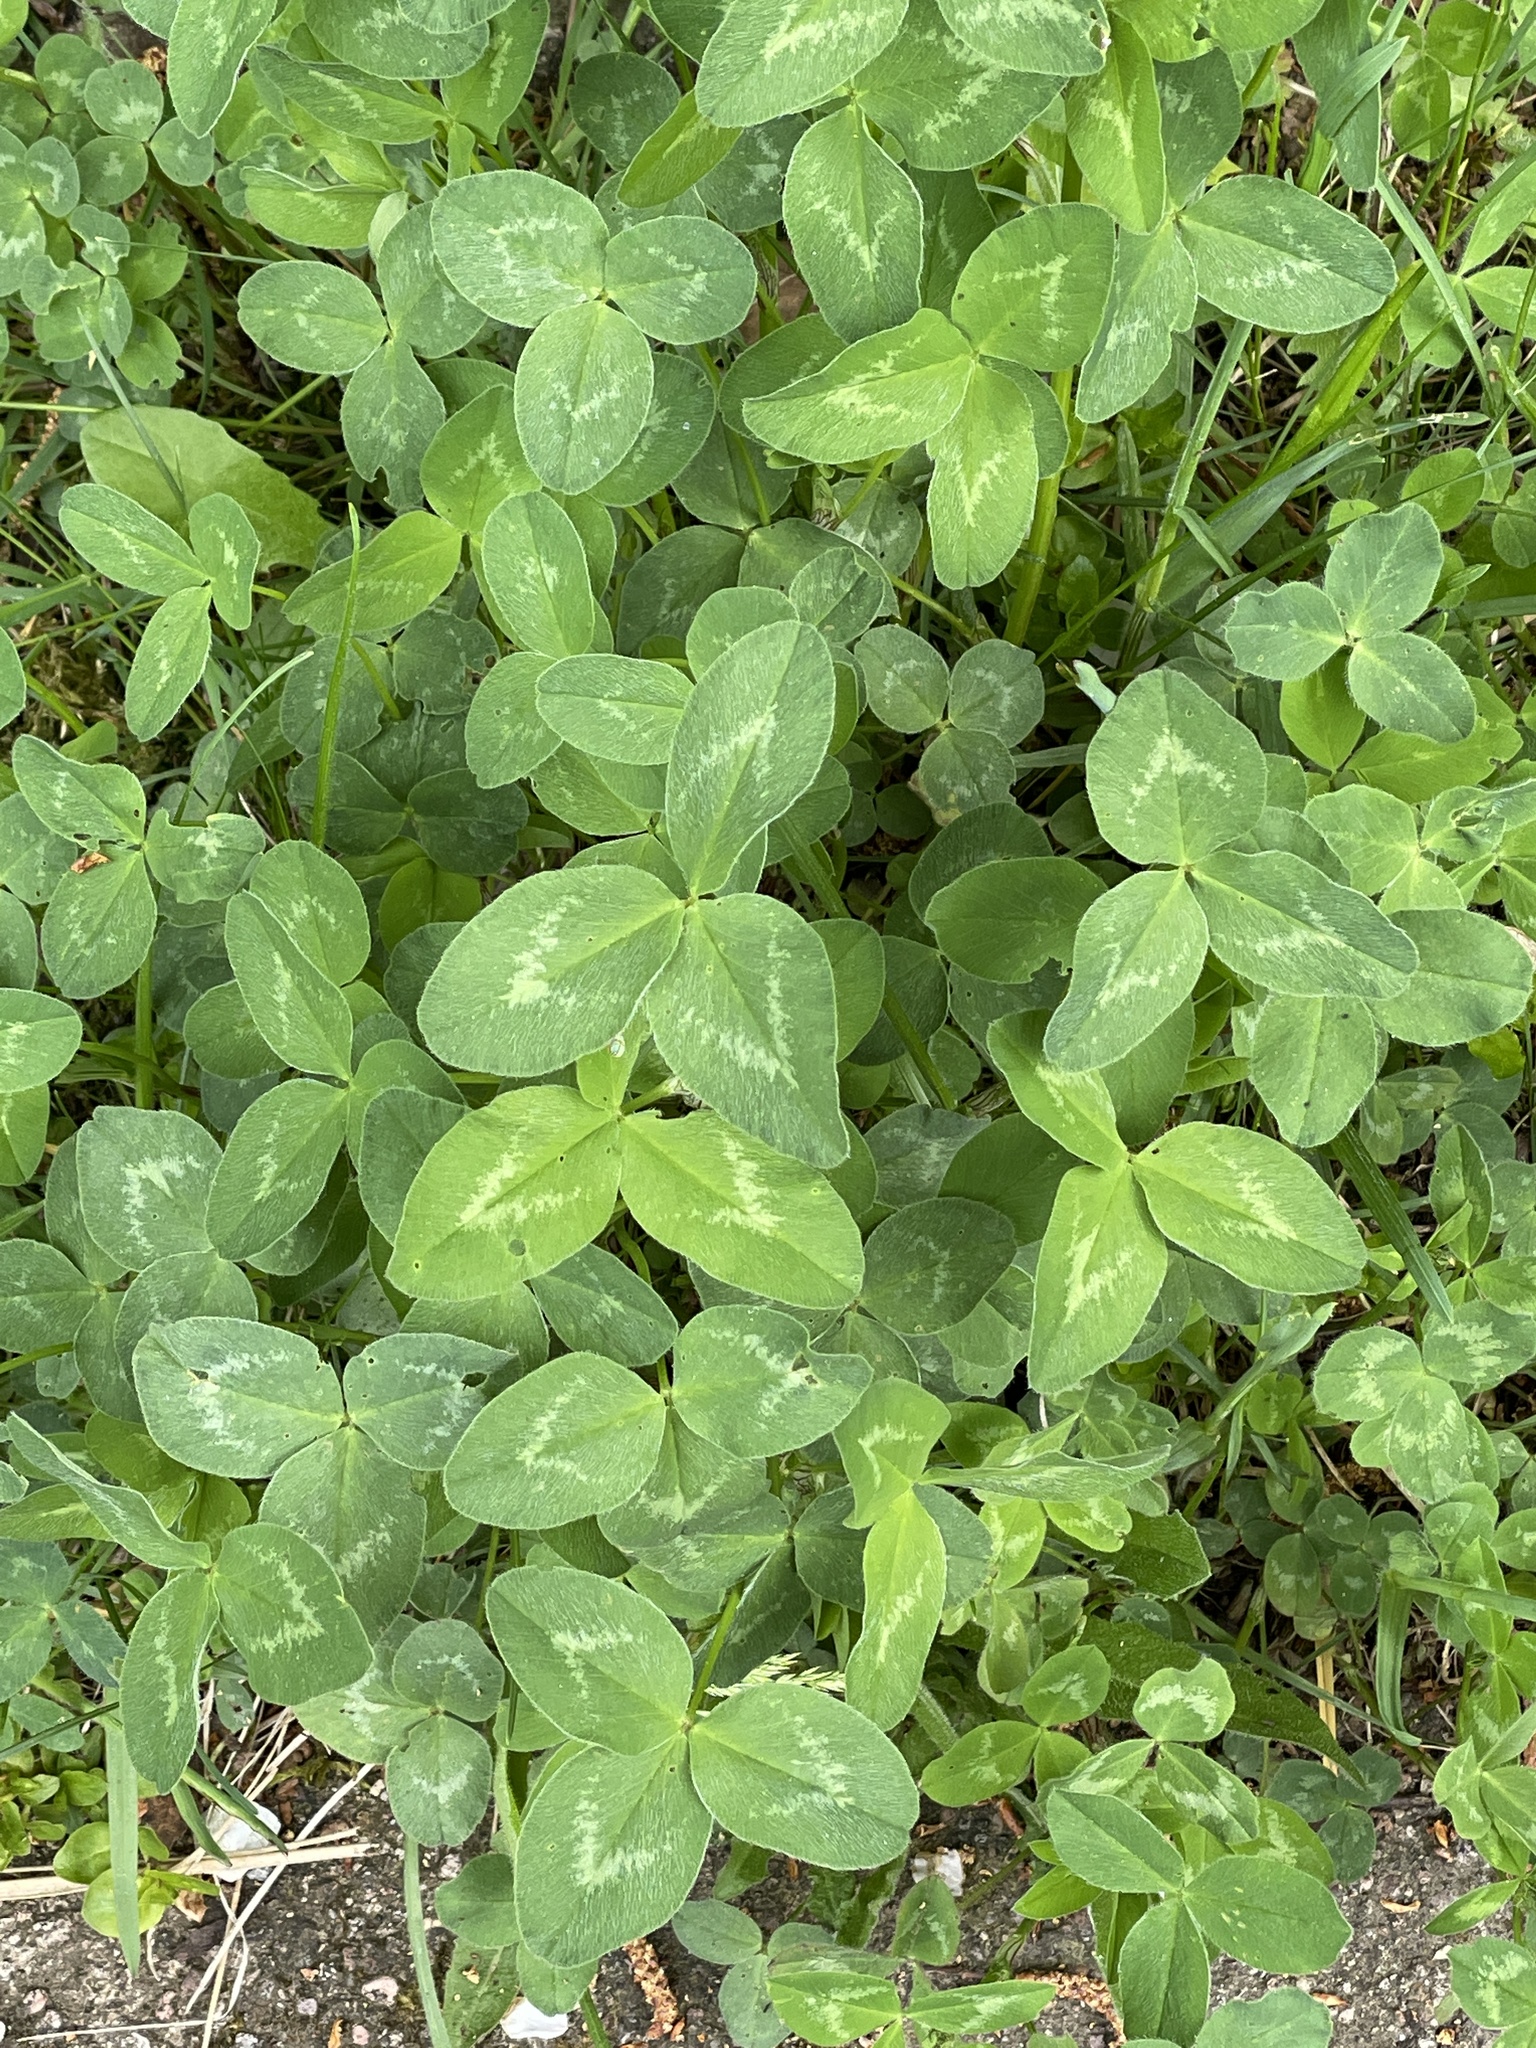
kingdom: Plantae
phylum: Tracheophyta
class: Magnoliopsida
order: Fabales
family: Fabaceae
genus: Trifolium
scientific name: Trifolium pratense
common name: Red clover
